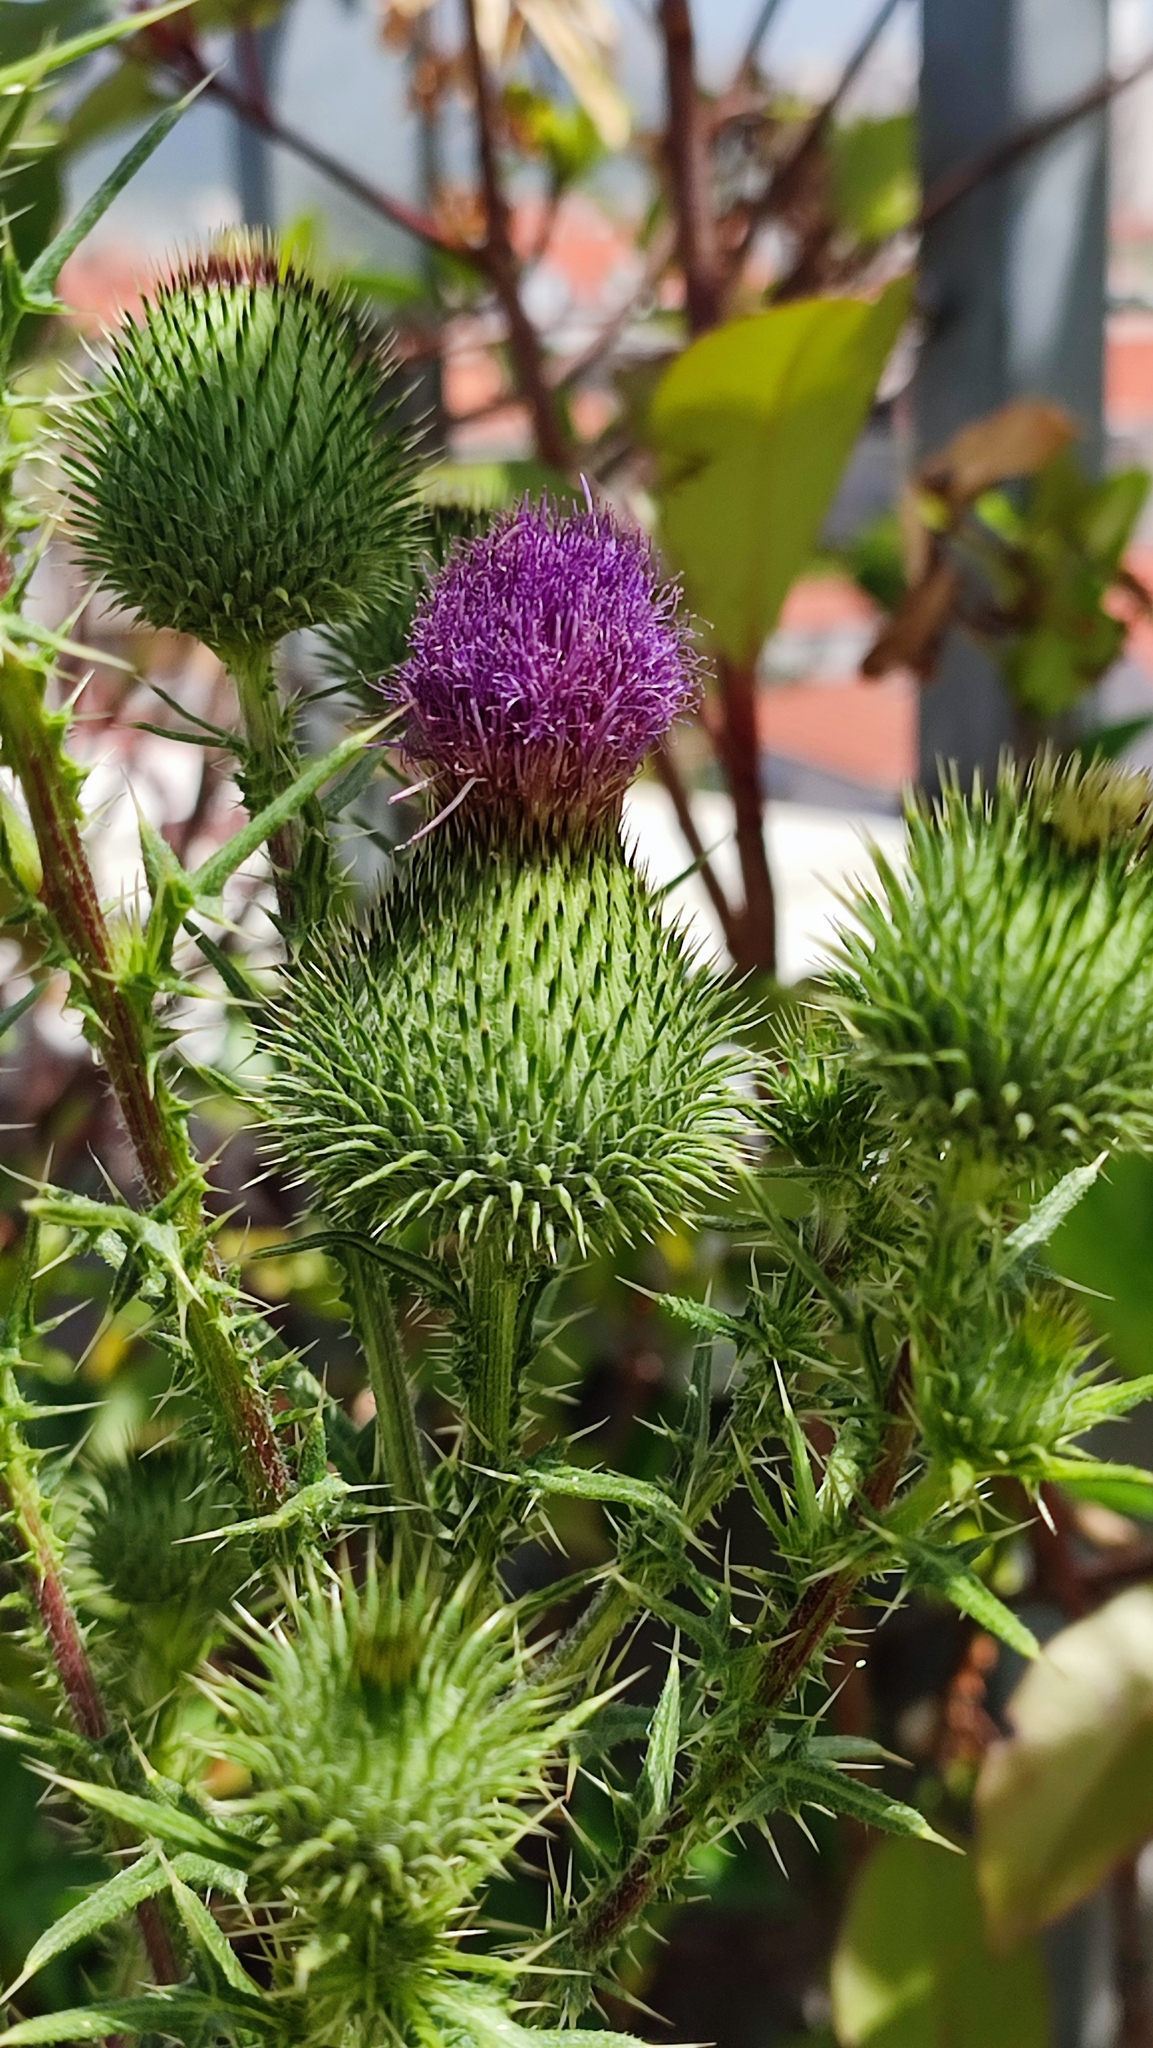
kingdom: Plantae
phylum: Tracheophyta
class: Magnoliopsida
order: Asterales
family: Asteraceae
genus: Cirsium
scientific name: Cirsium vulgare
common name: Bull thistle
